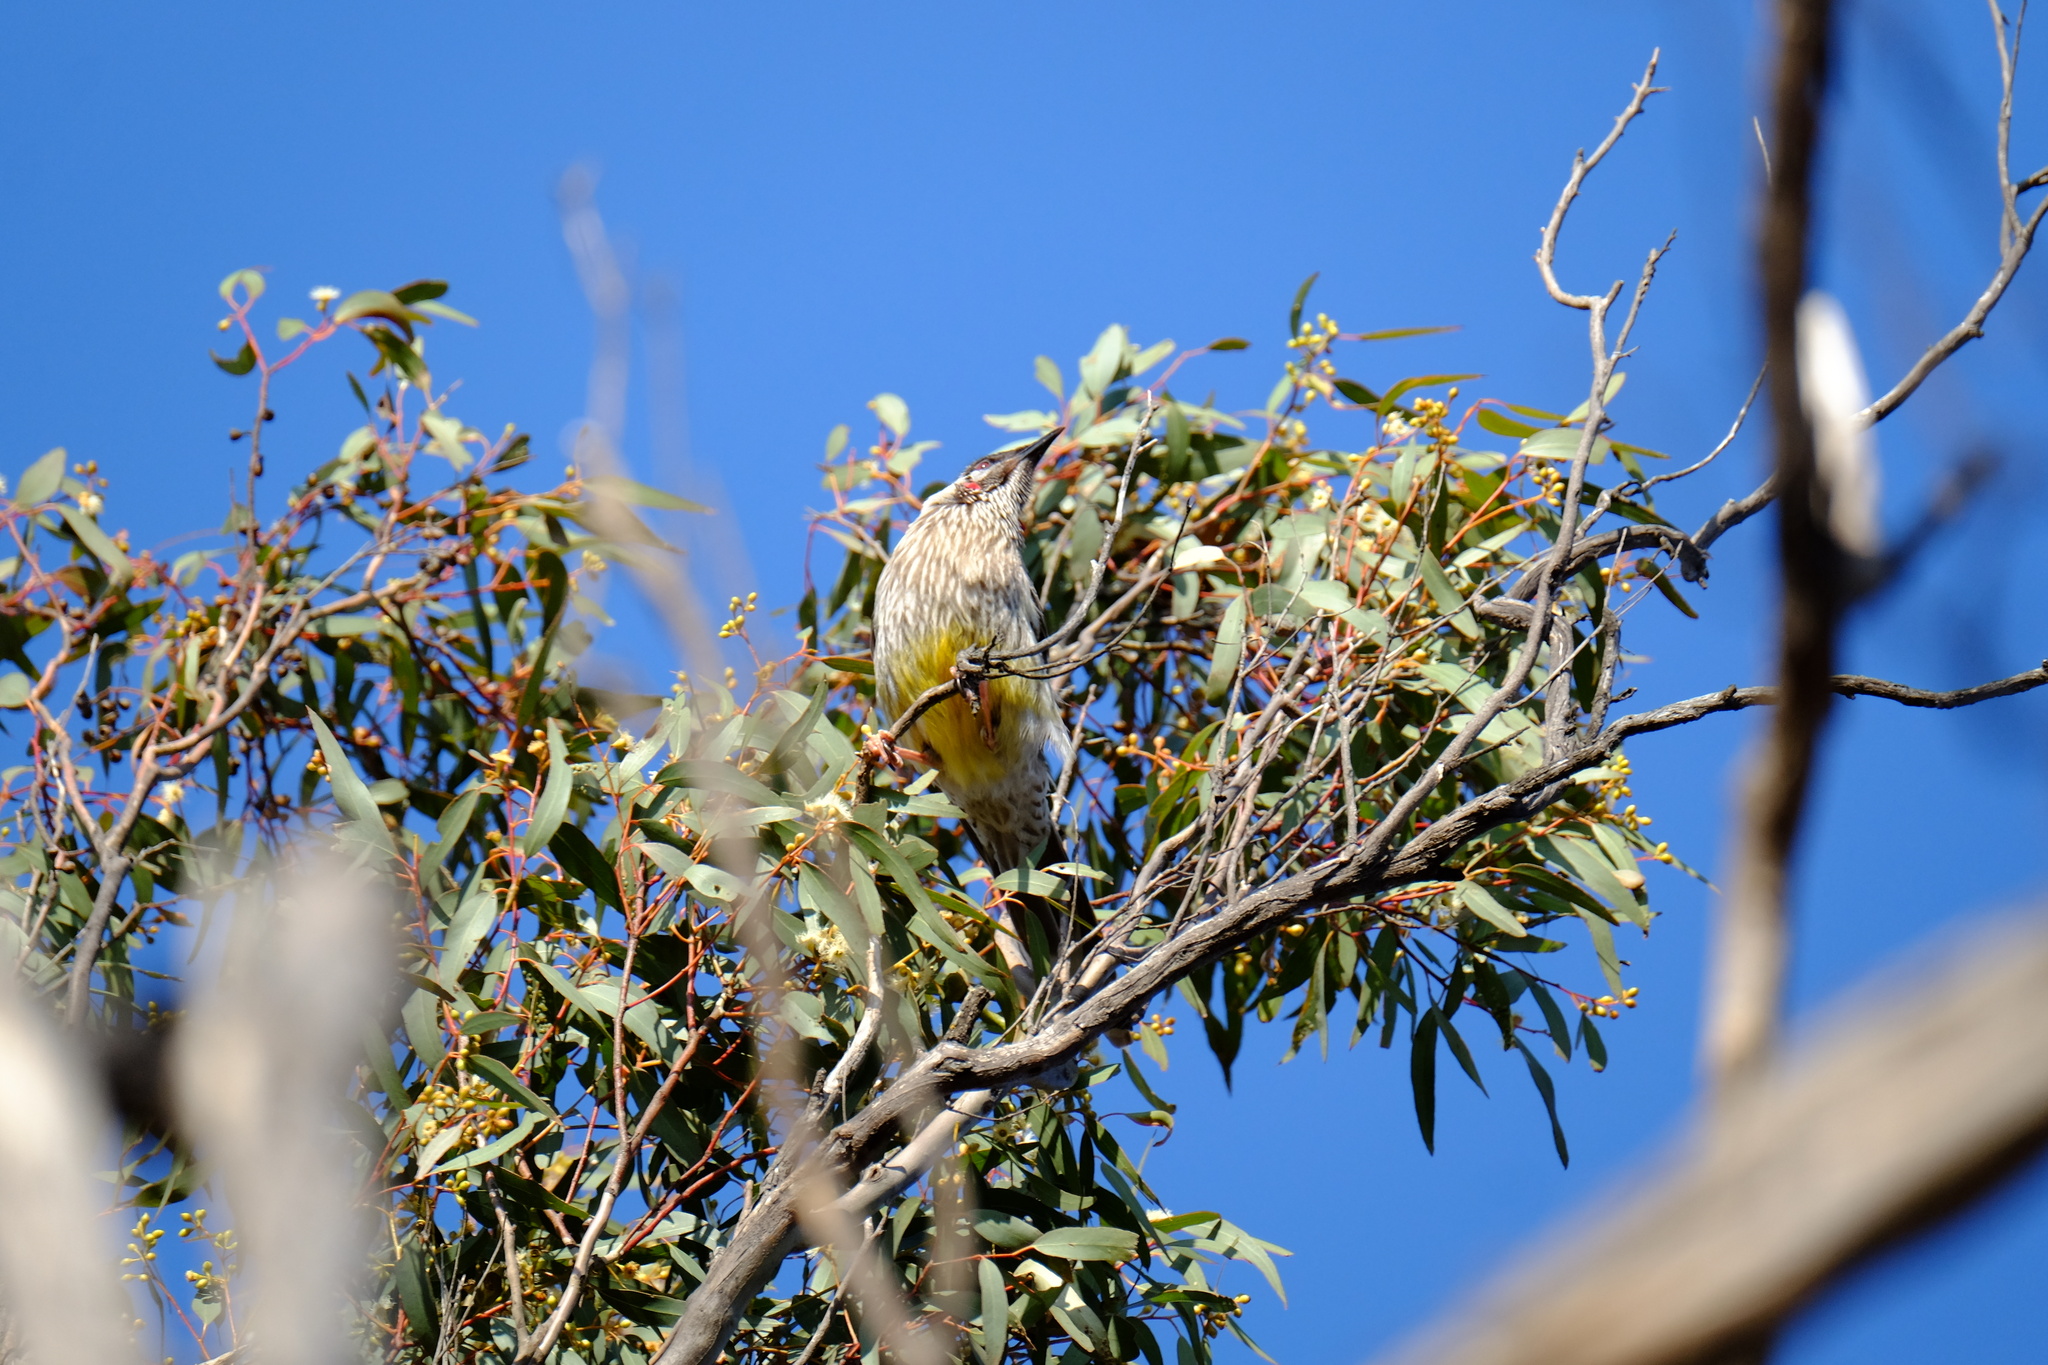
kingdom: Animalia
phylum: Chordata
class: Aves
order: Passeriformes
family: Meliphagidae
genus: Anthochaera
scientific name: Anthochaera carunculata
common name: Red wattlebird
